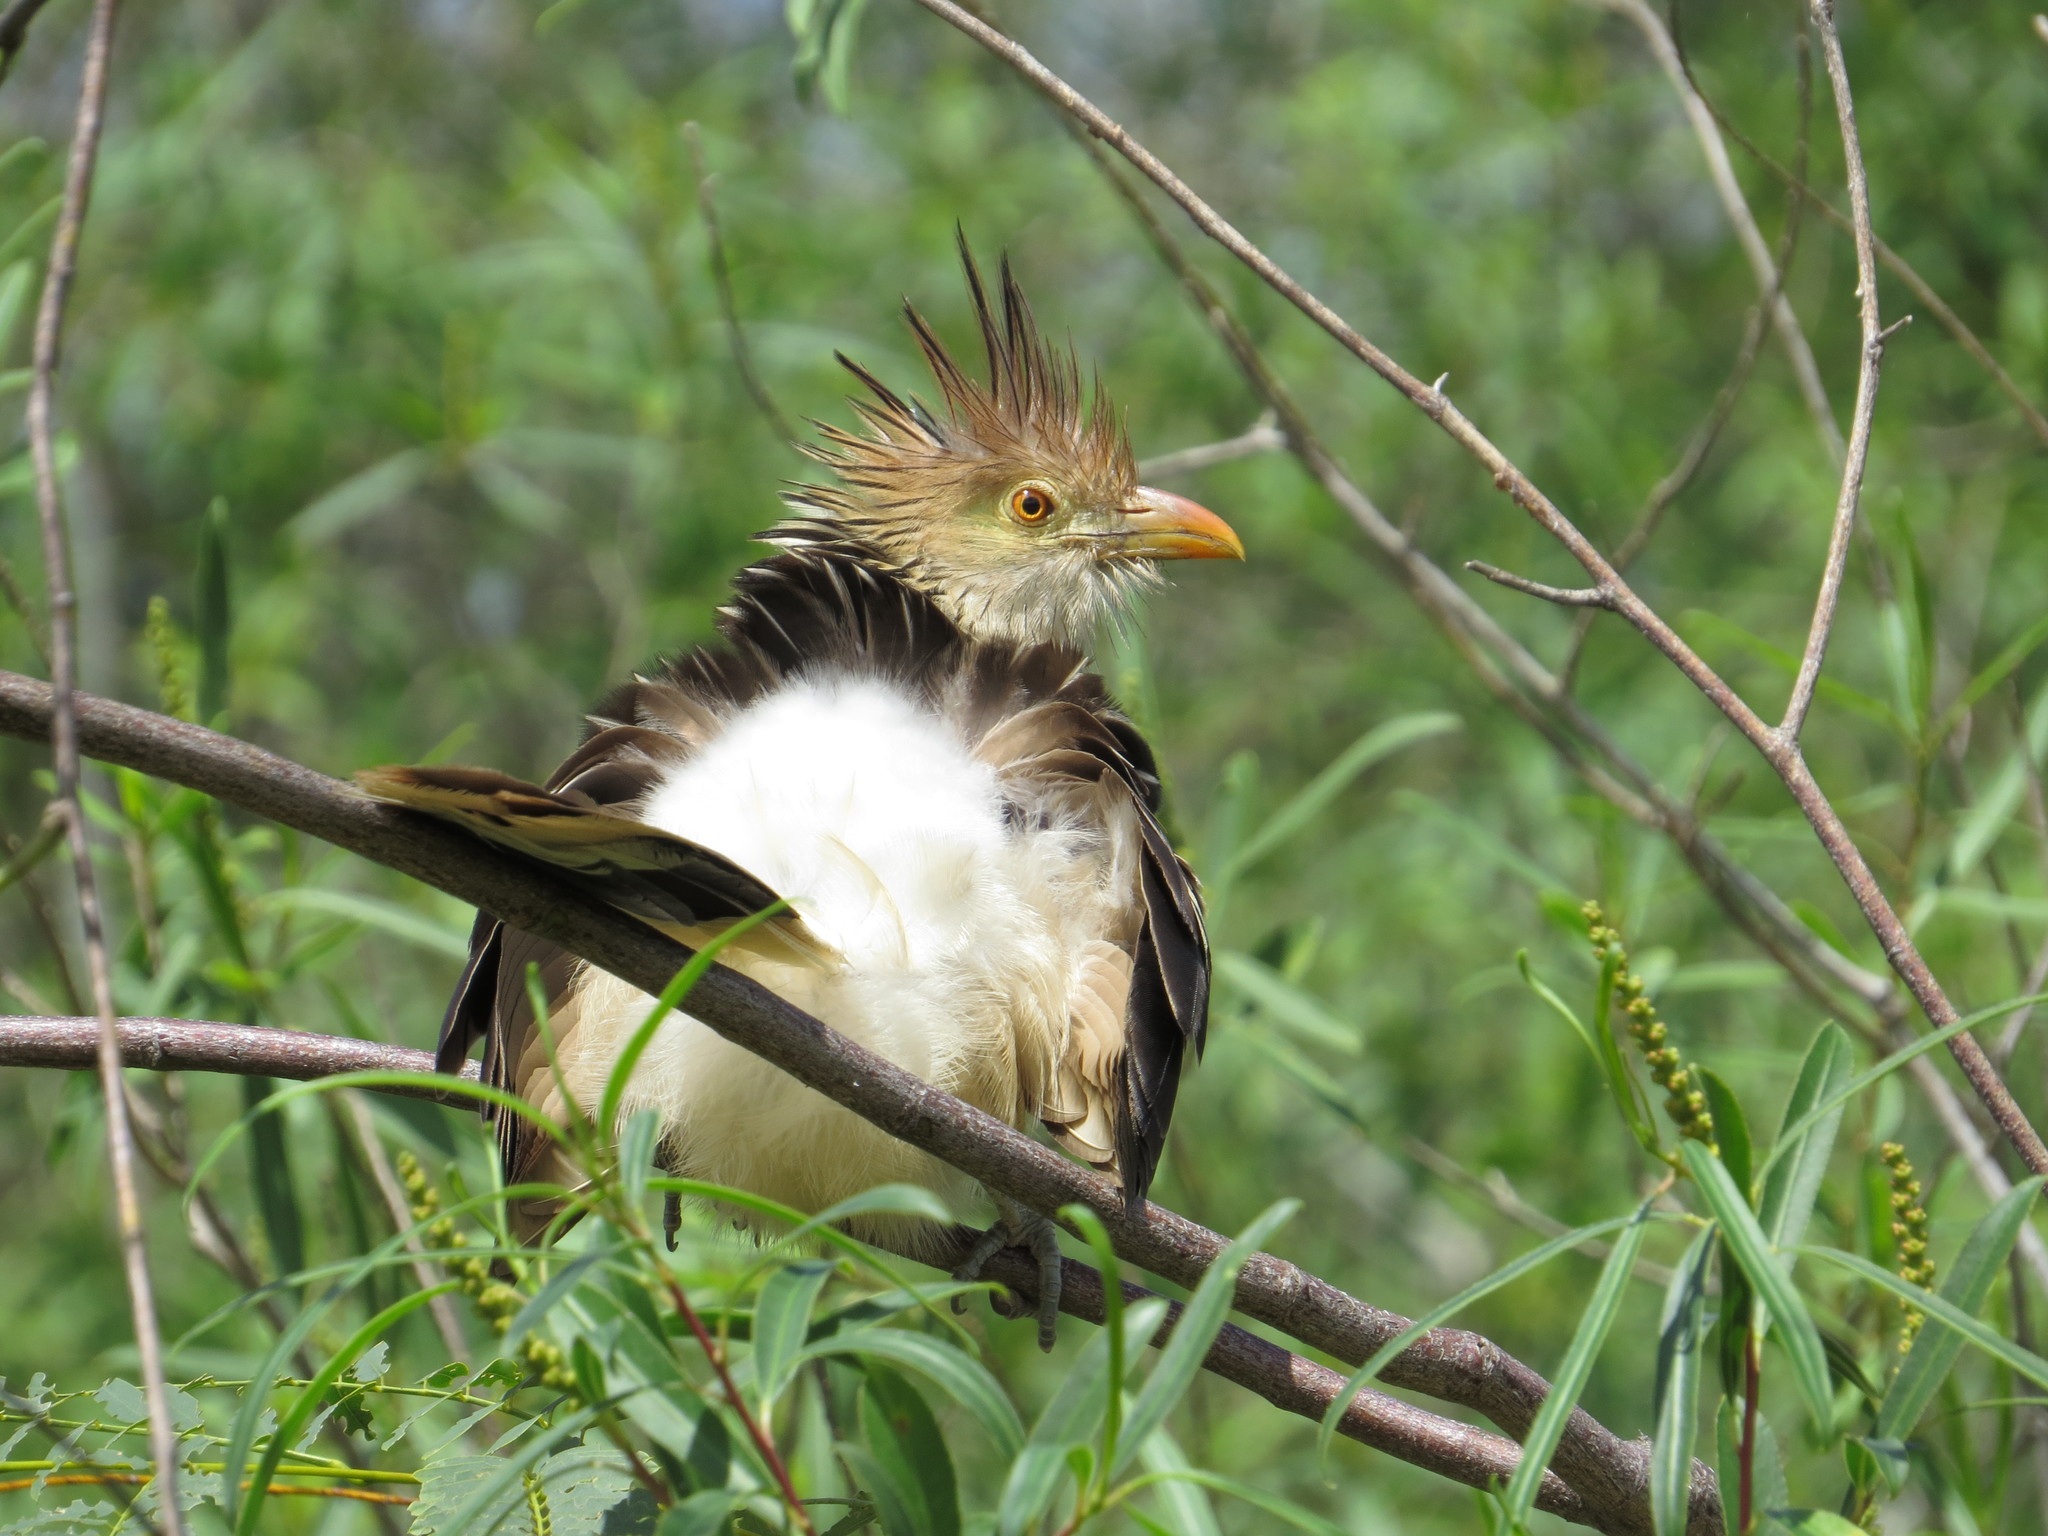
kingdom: Animalia
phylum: Chordata
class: Aves
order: Cuculiformes
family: Cuculidae
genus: Guira
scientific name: Guira guira
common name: Guira cuckoo
